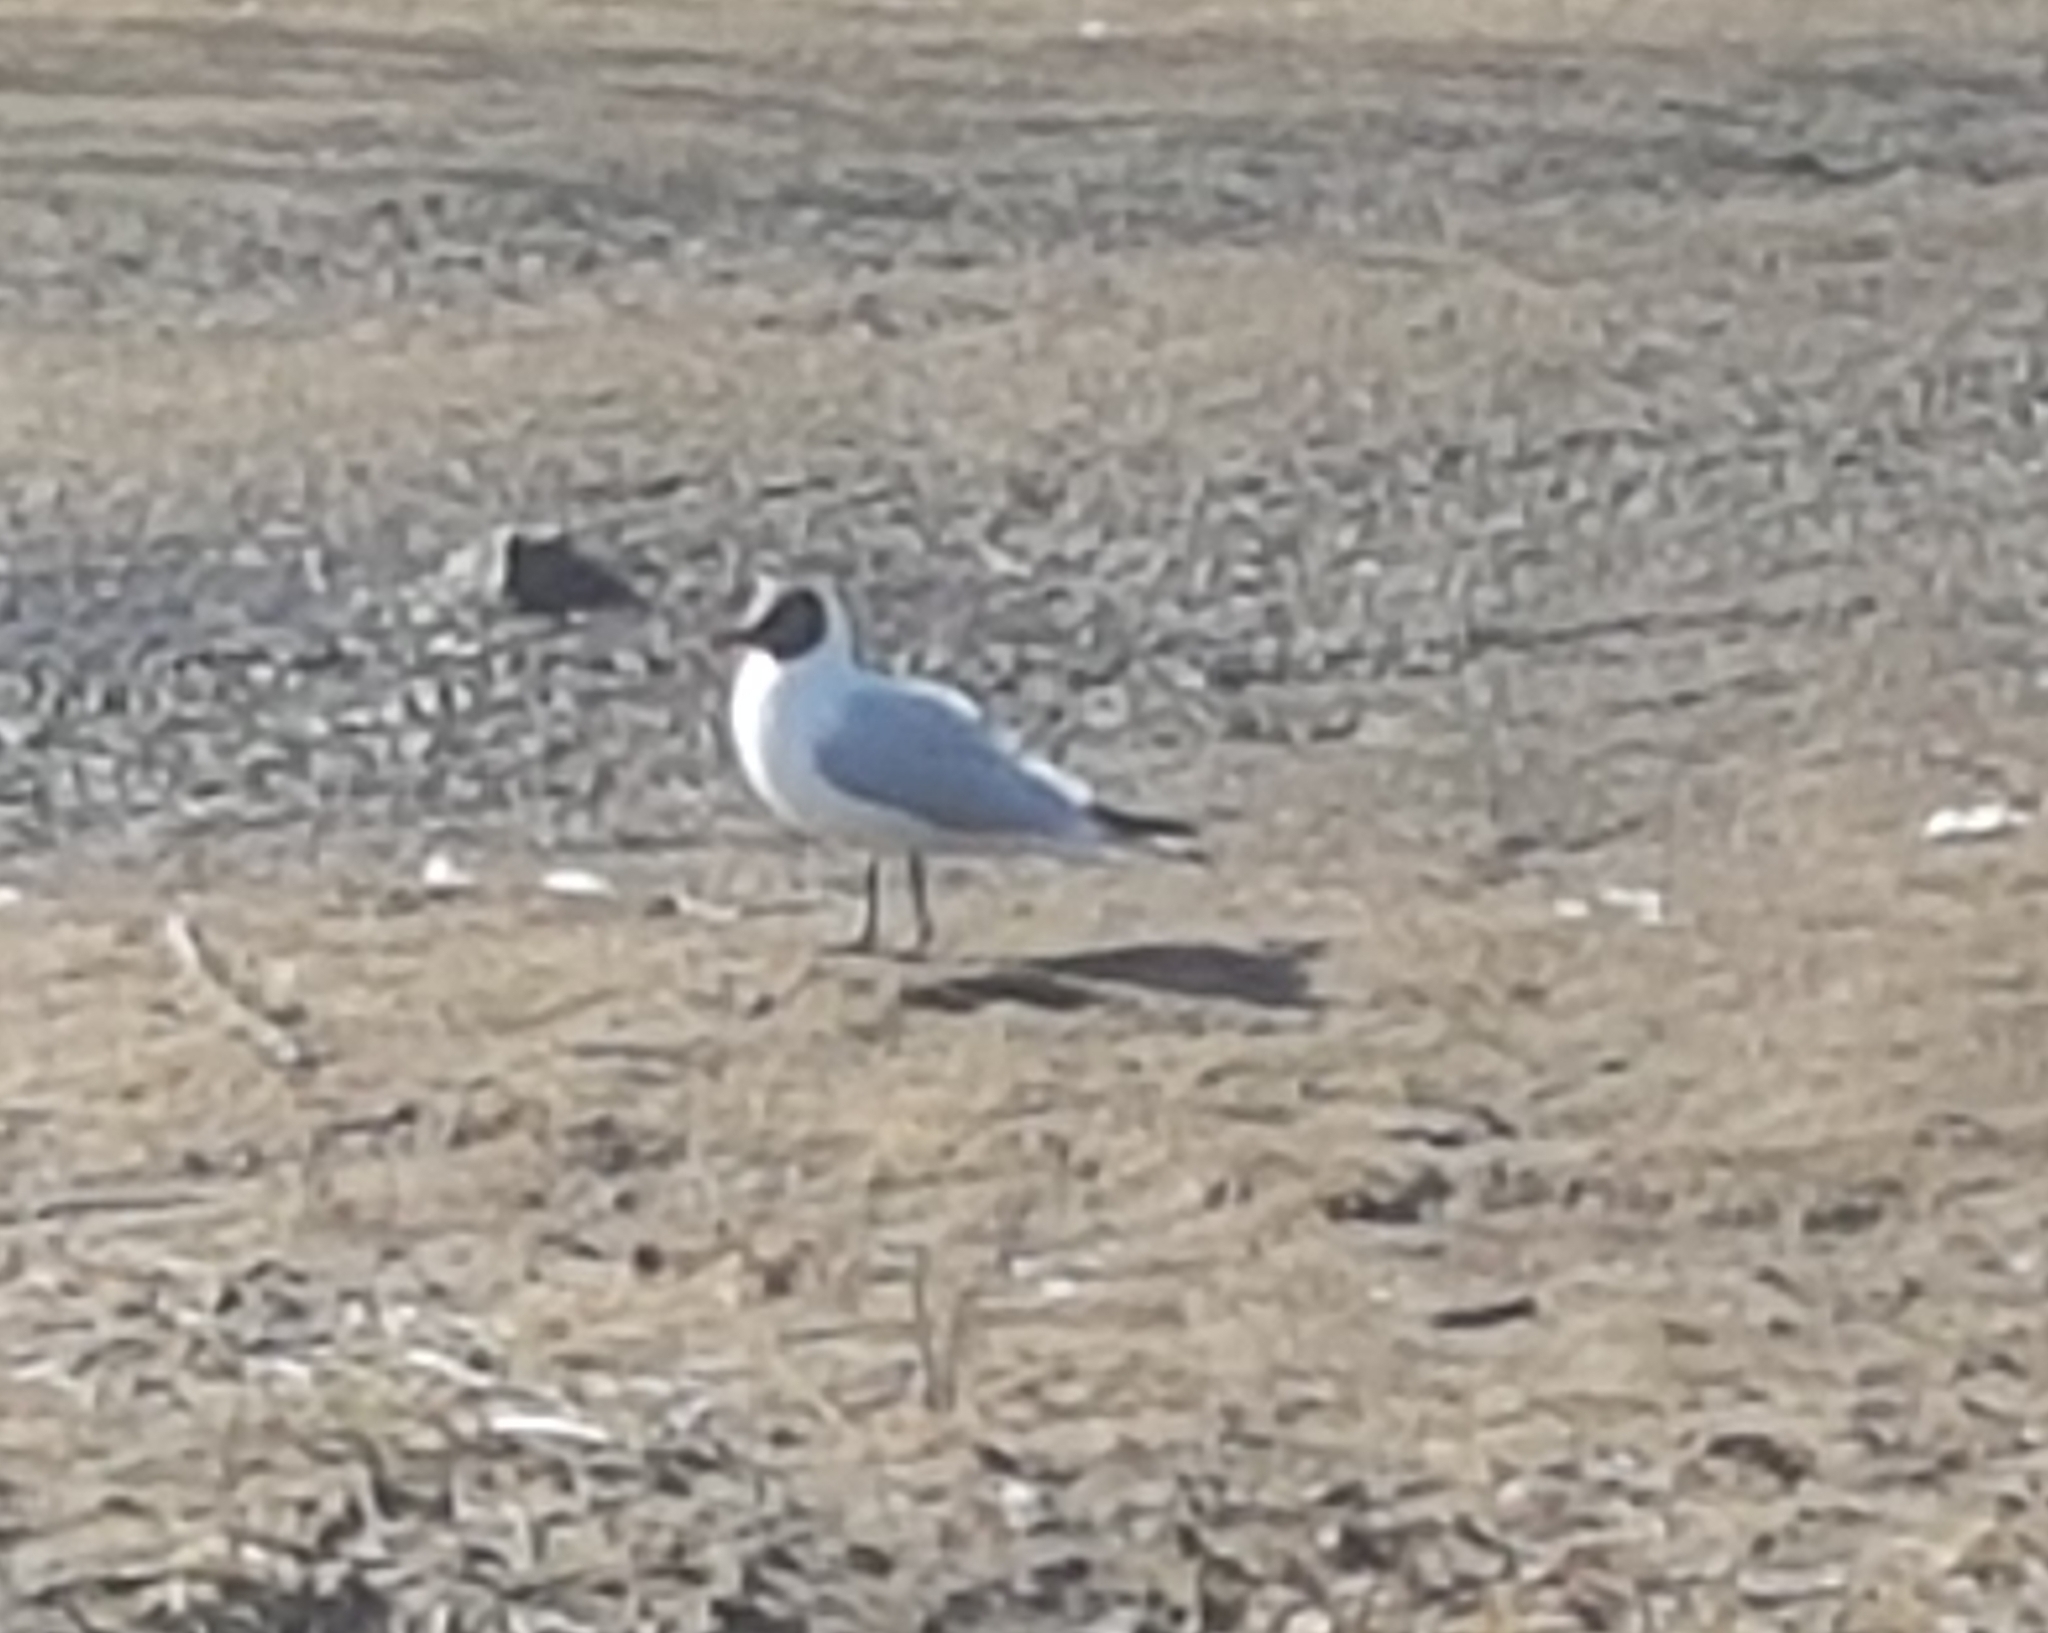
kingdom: Animalia
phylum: Chordata
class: Aves
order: Charadriiformes
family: Laridae
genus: Chroicocephalus
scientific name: Chroicocephalus ridibundus
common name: Black-headed gull
